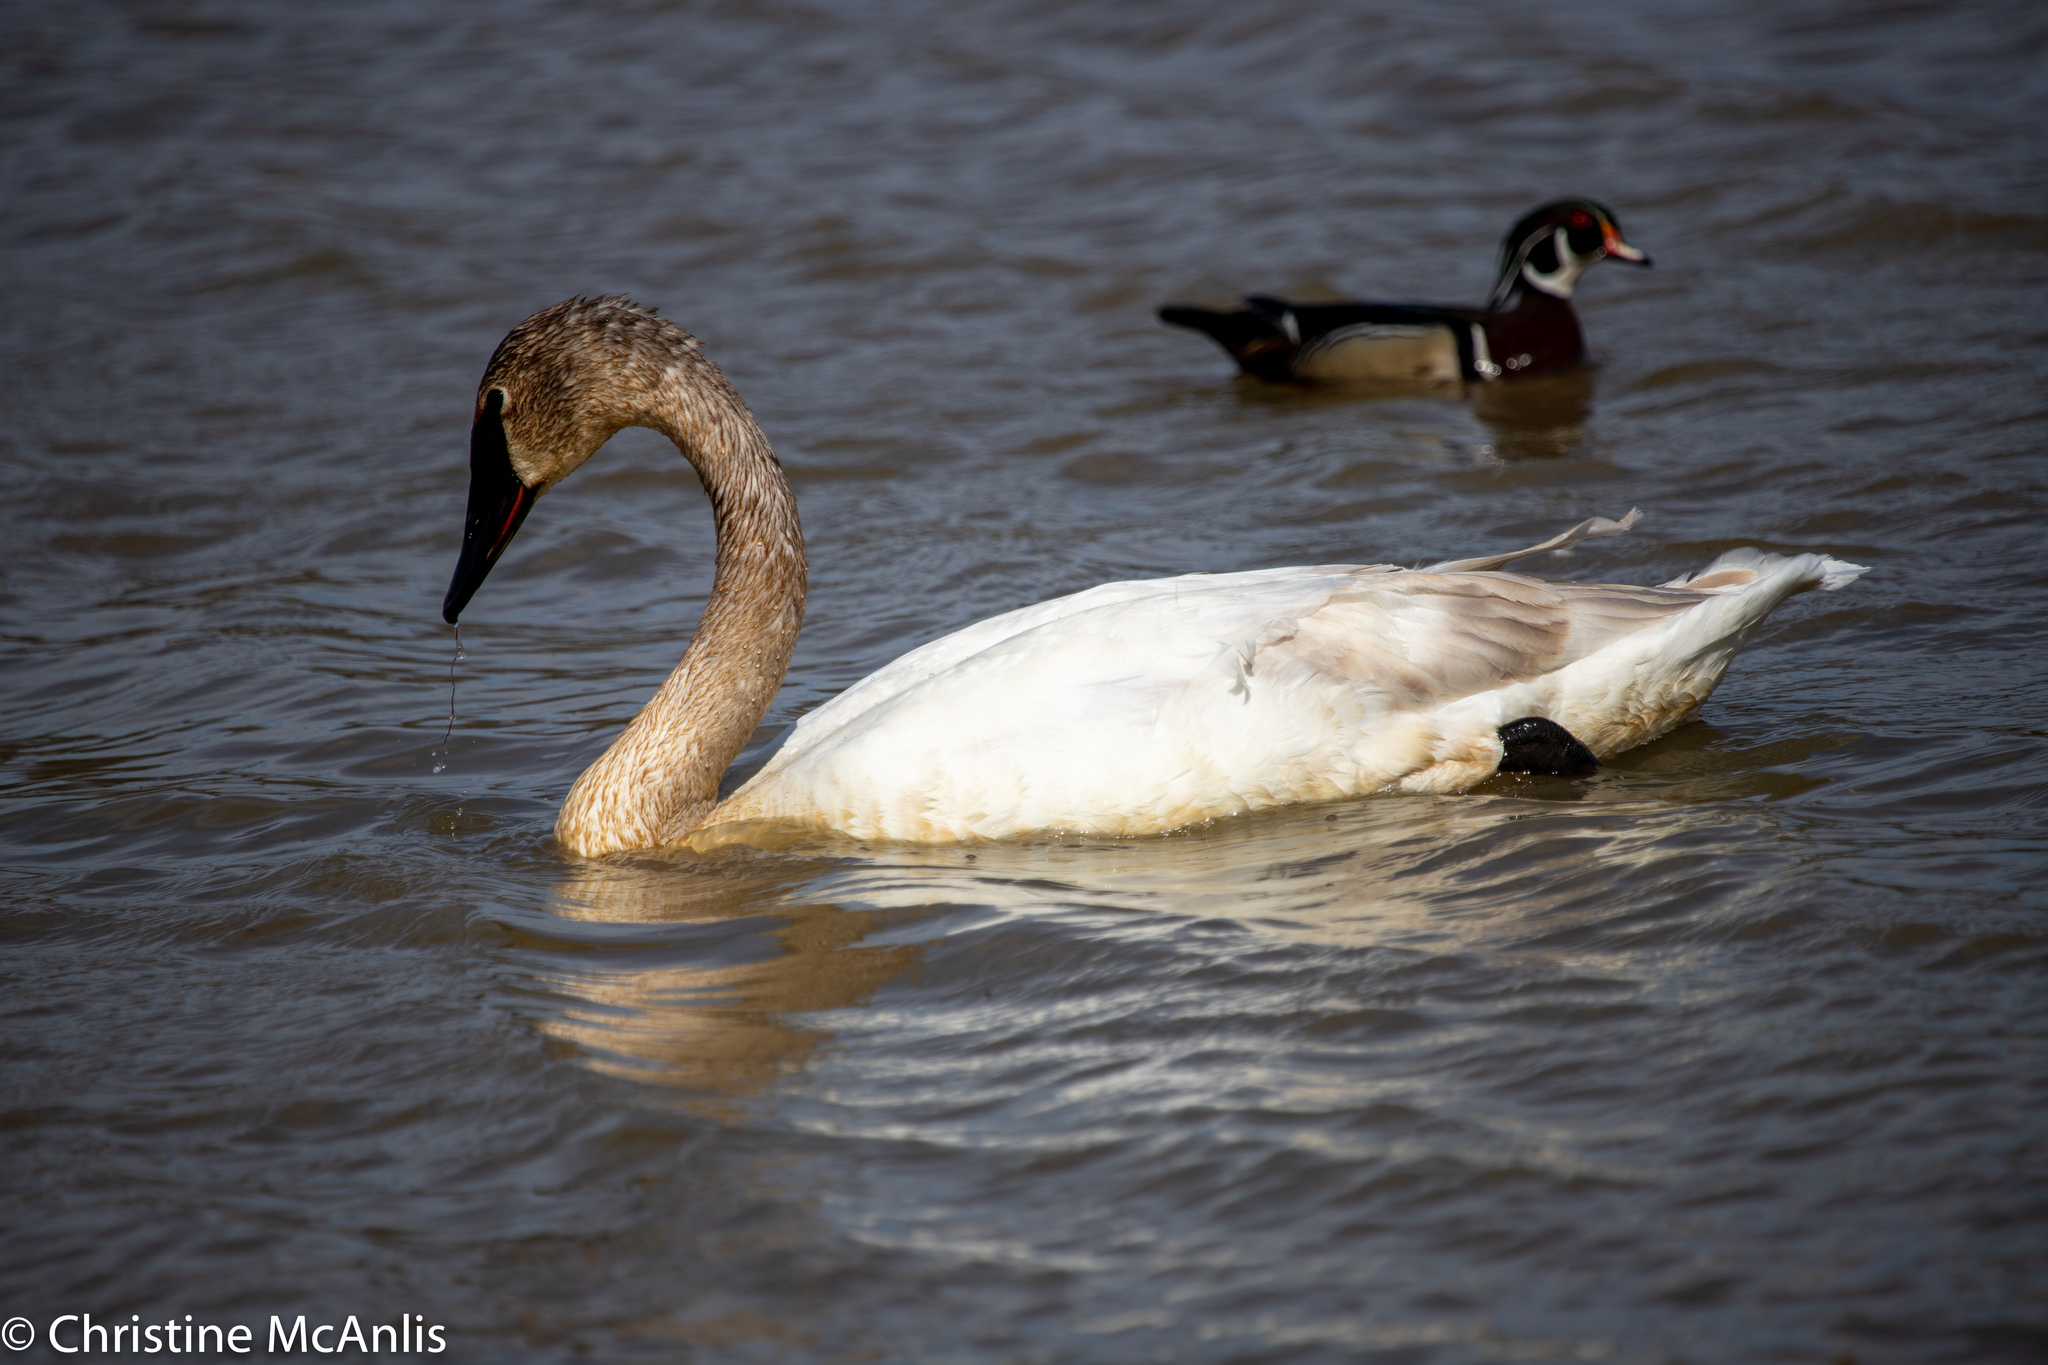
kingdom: Animalia
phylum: Chordata
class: Aves
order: Anseriformes
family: Anatidae
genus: Cygnus
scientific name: Cygnus buccinator
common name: Trumpeter swan
